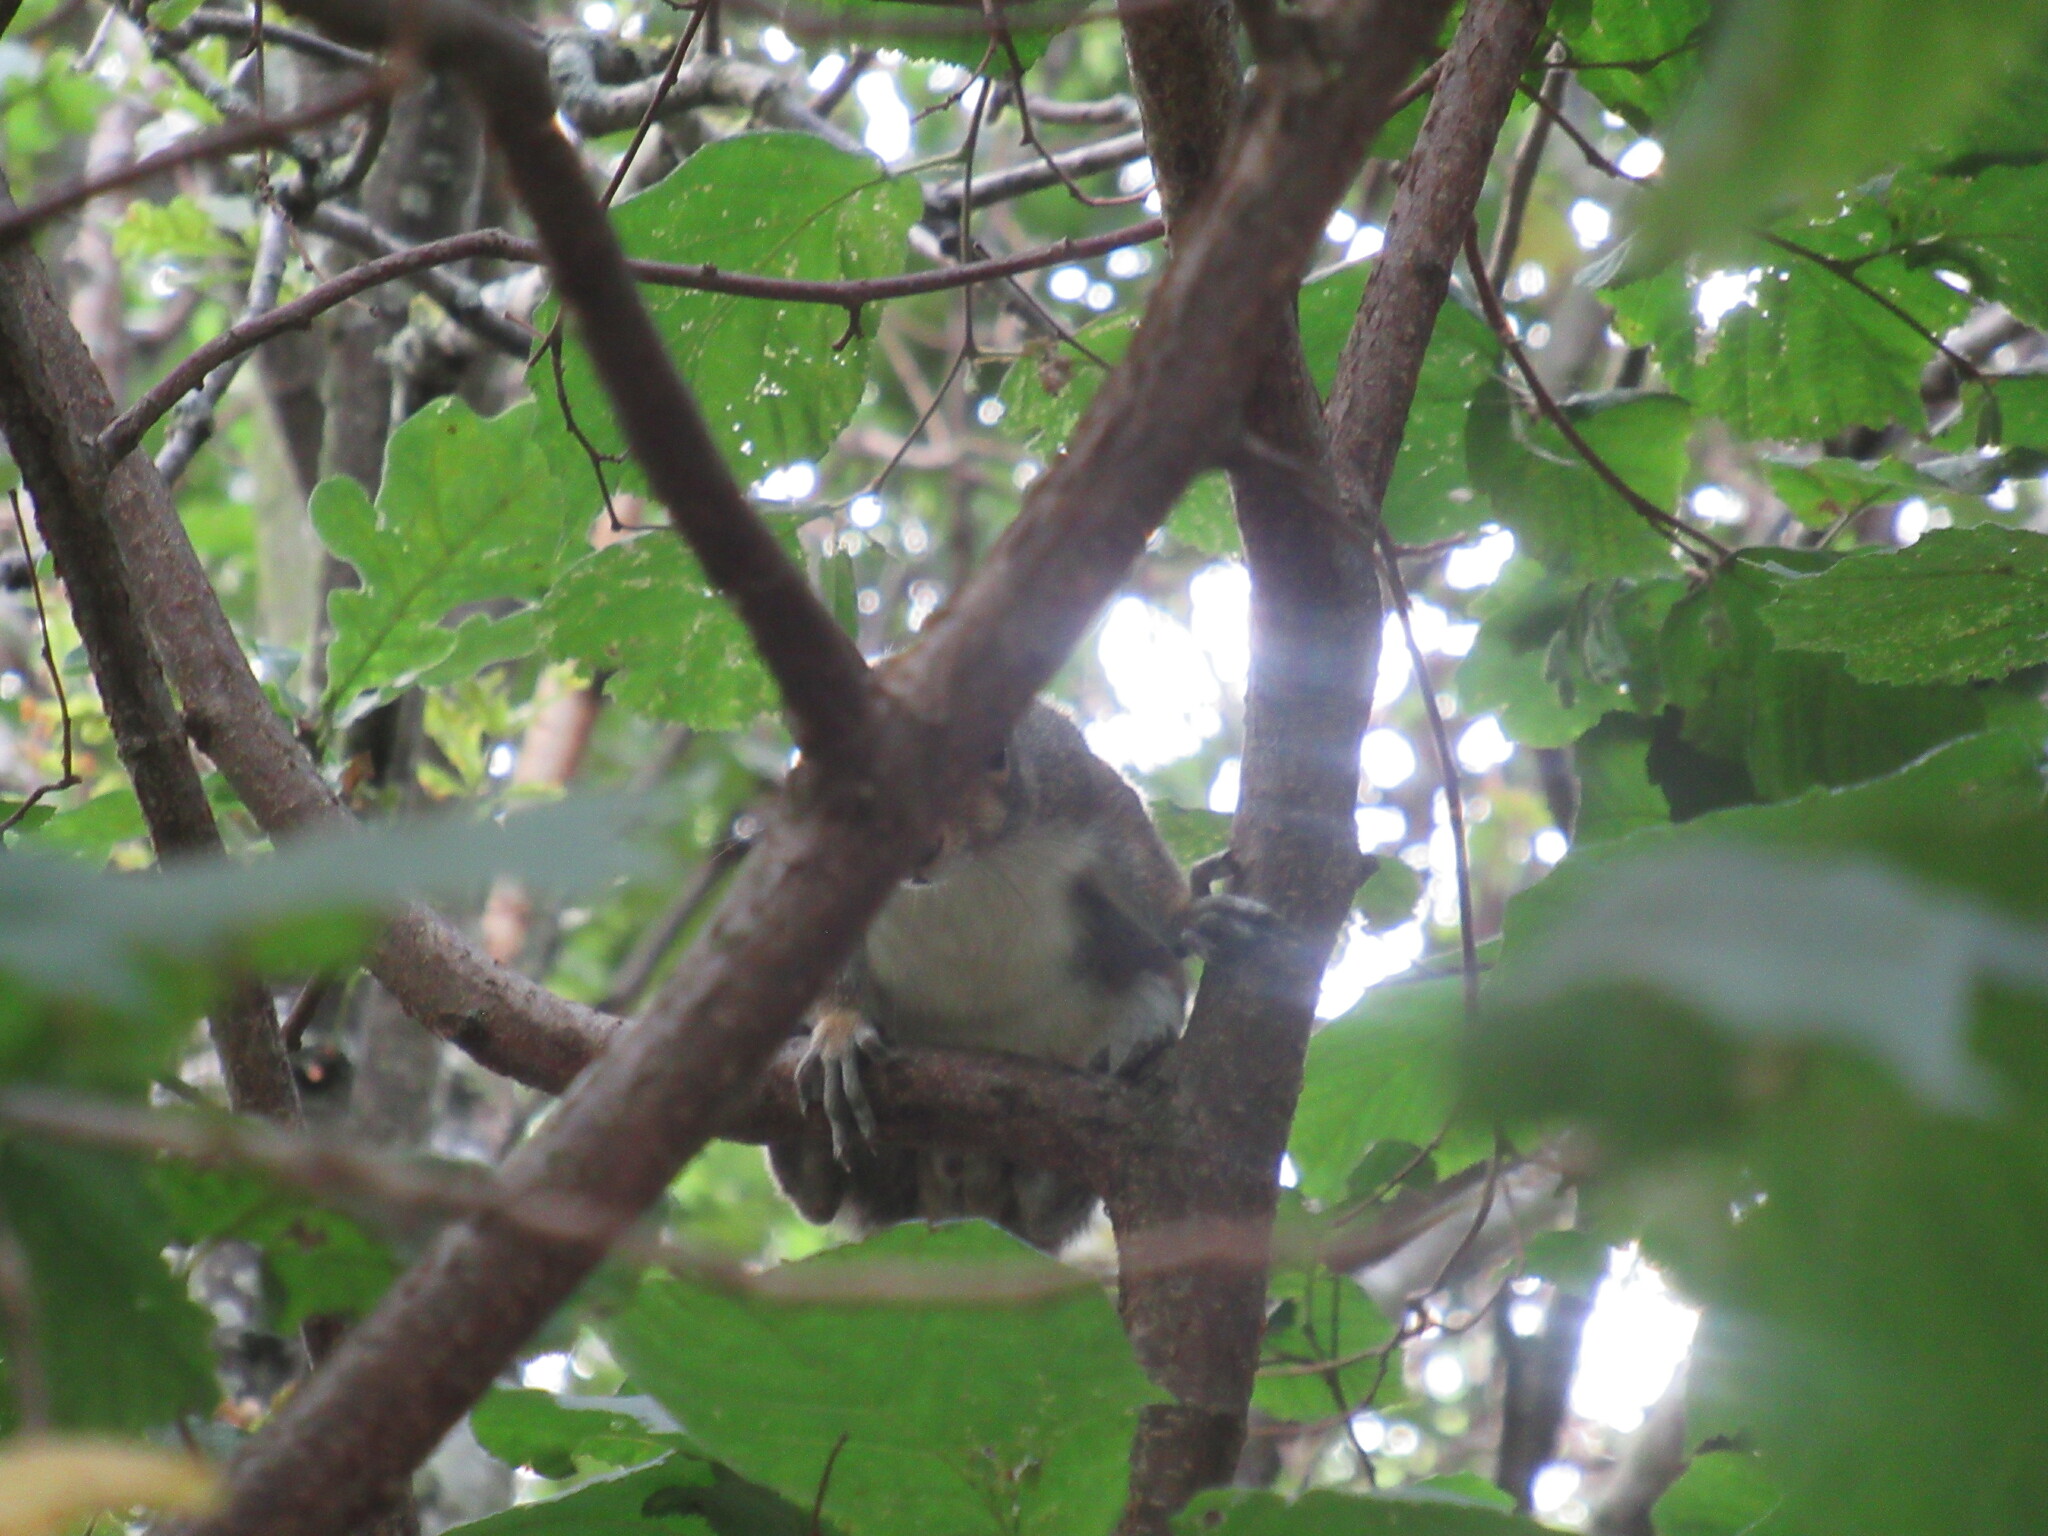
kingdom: Animalia
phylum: Chordata
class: Mammalia
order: Rodentia
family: Sciuridae
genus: Sciurus
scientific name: Sciurus carolinensis
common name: Eastern gray squirrel
